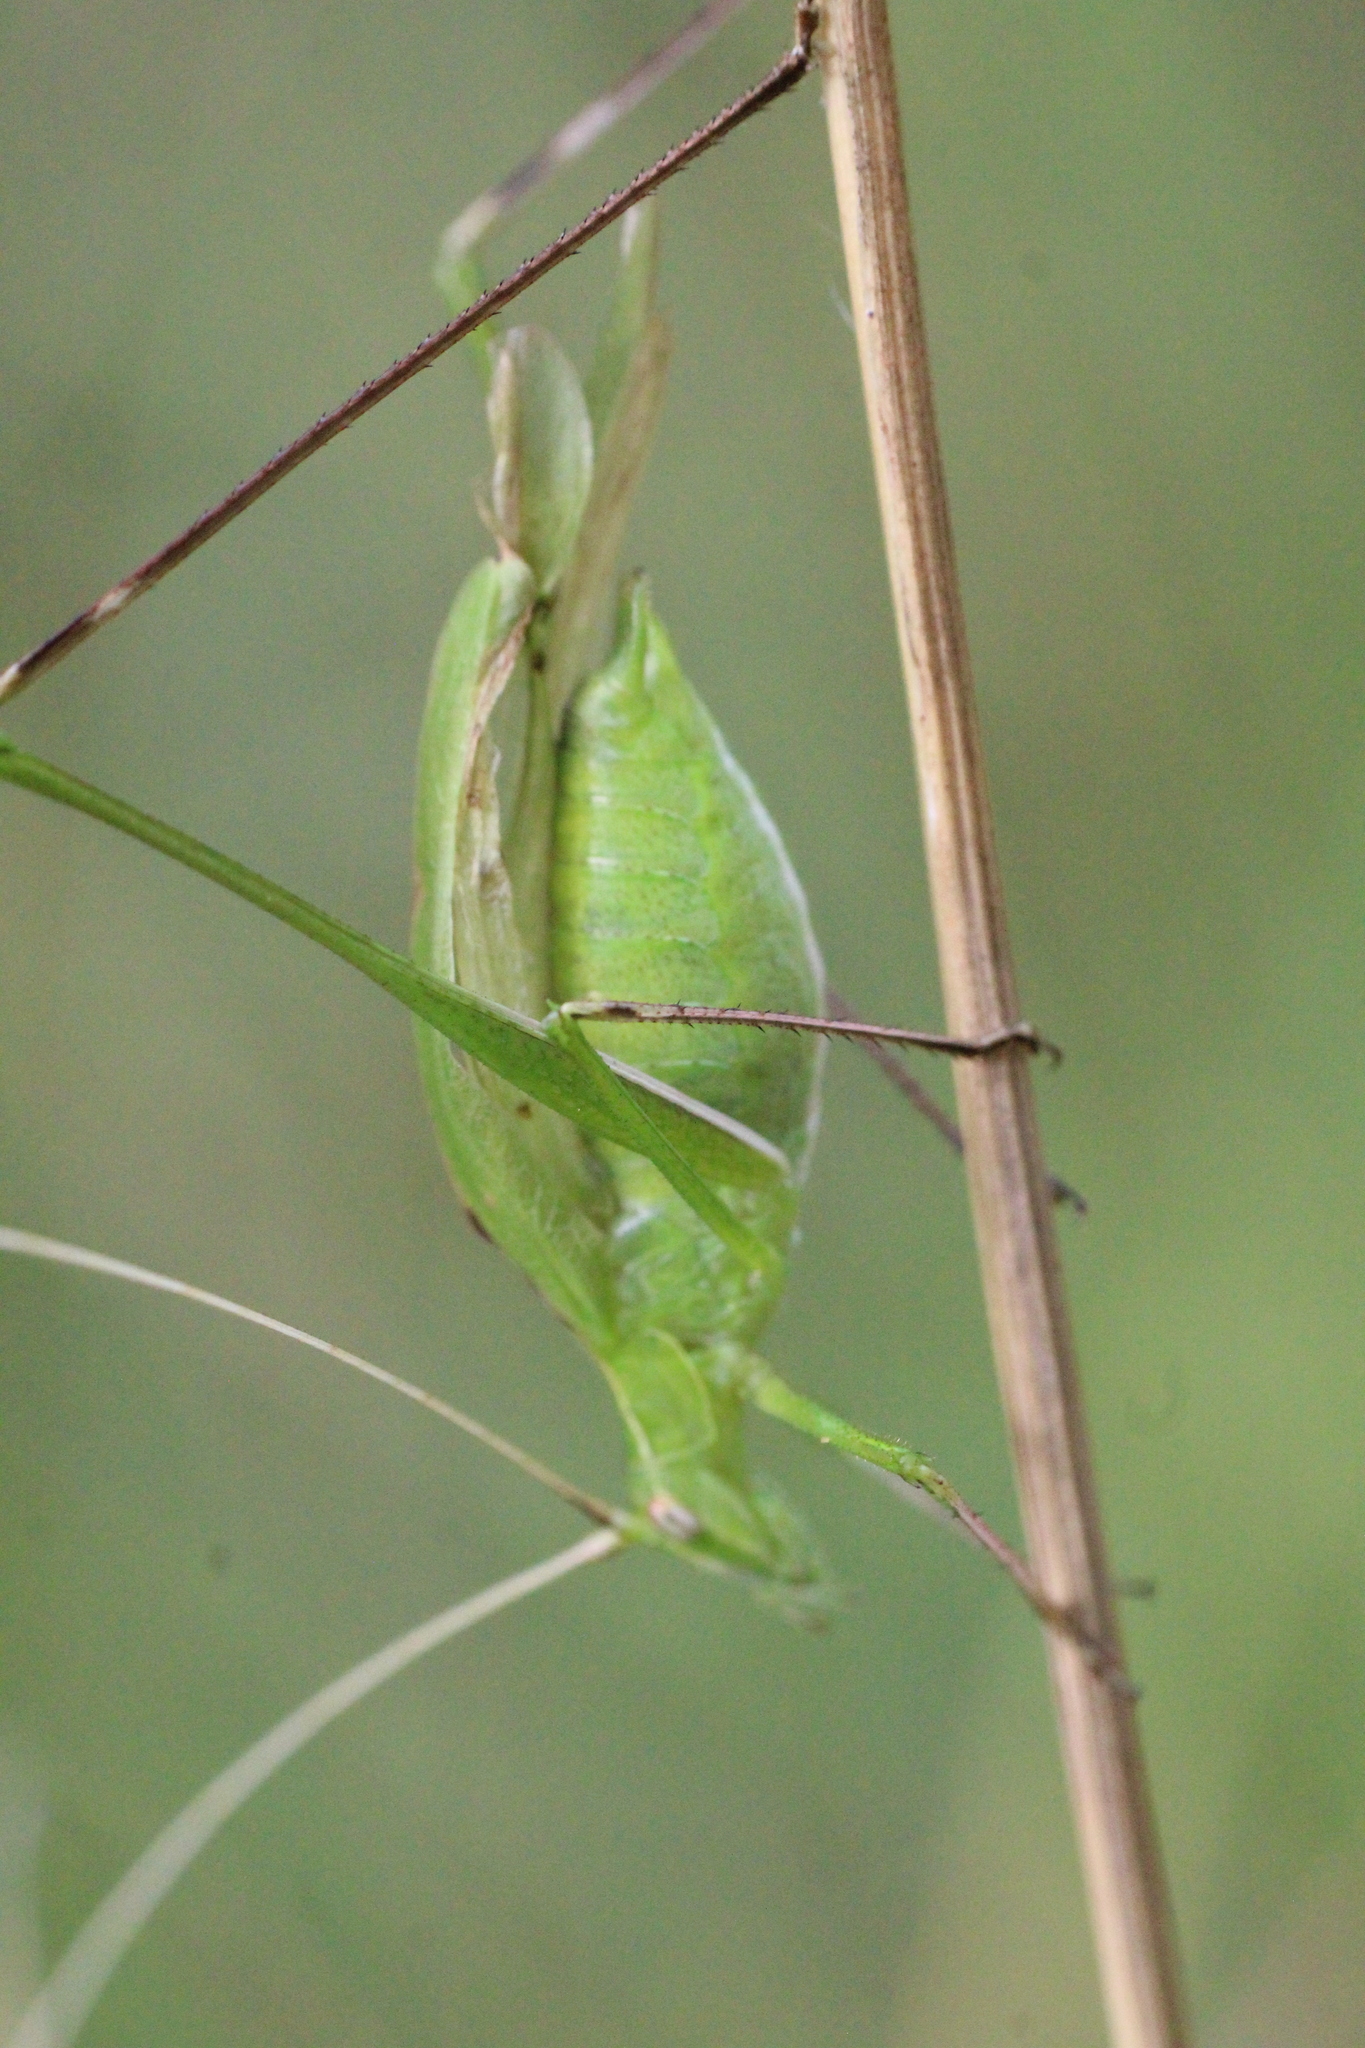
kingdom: Animalia
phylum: Arthropoda
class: Insecta
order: Orthoptera
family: Tettigoniidae
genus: Tylopsis
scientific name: Tylopsis lilifolia
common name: Lily bush-cricket
